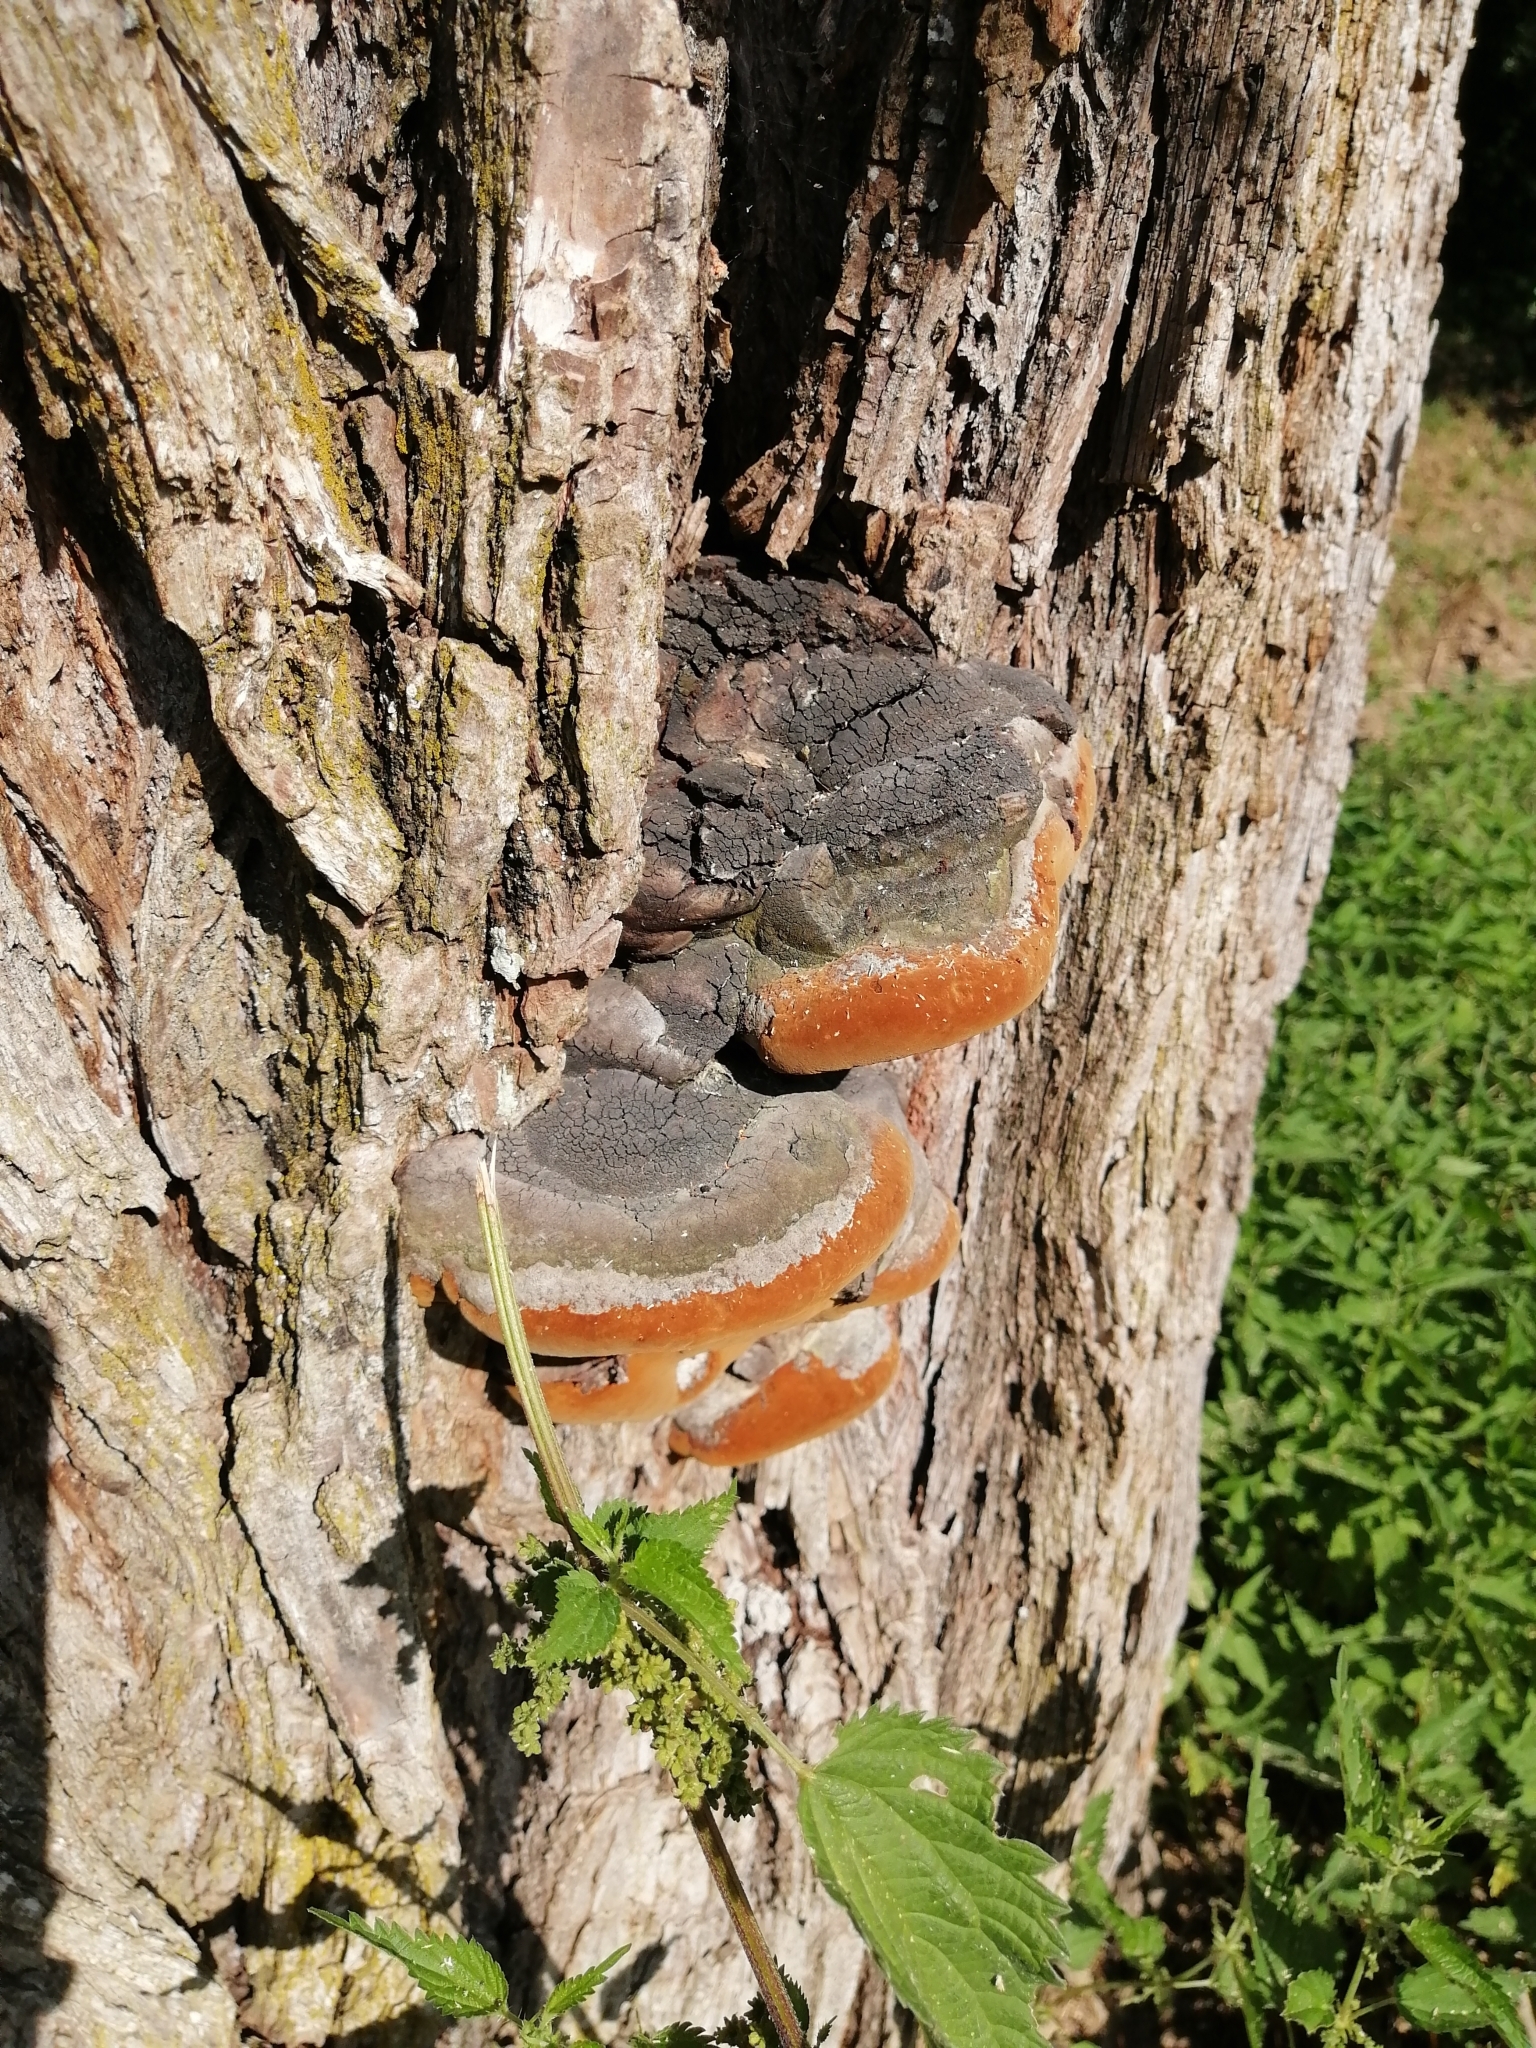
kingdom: Fungi
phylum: Basidiomycota
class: Agaricomycetes
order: Hymenochaetales
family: Hymenochaetaceae
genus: Phellinus
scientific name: Phellinus igniarius
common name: Willow bracket
